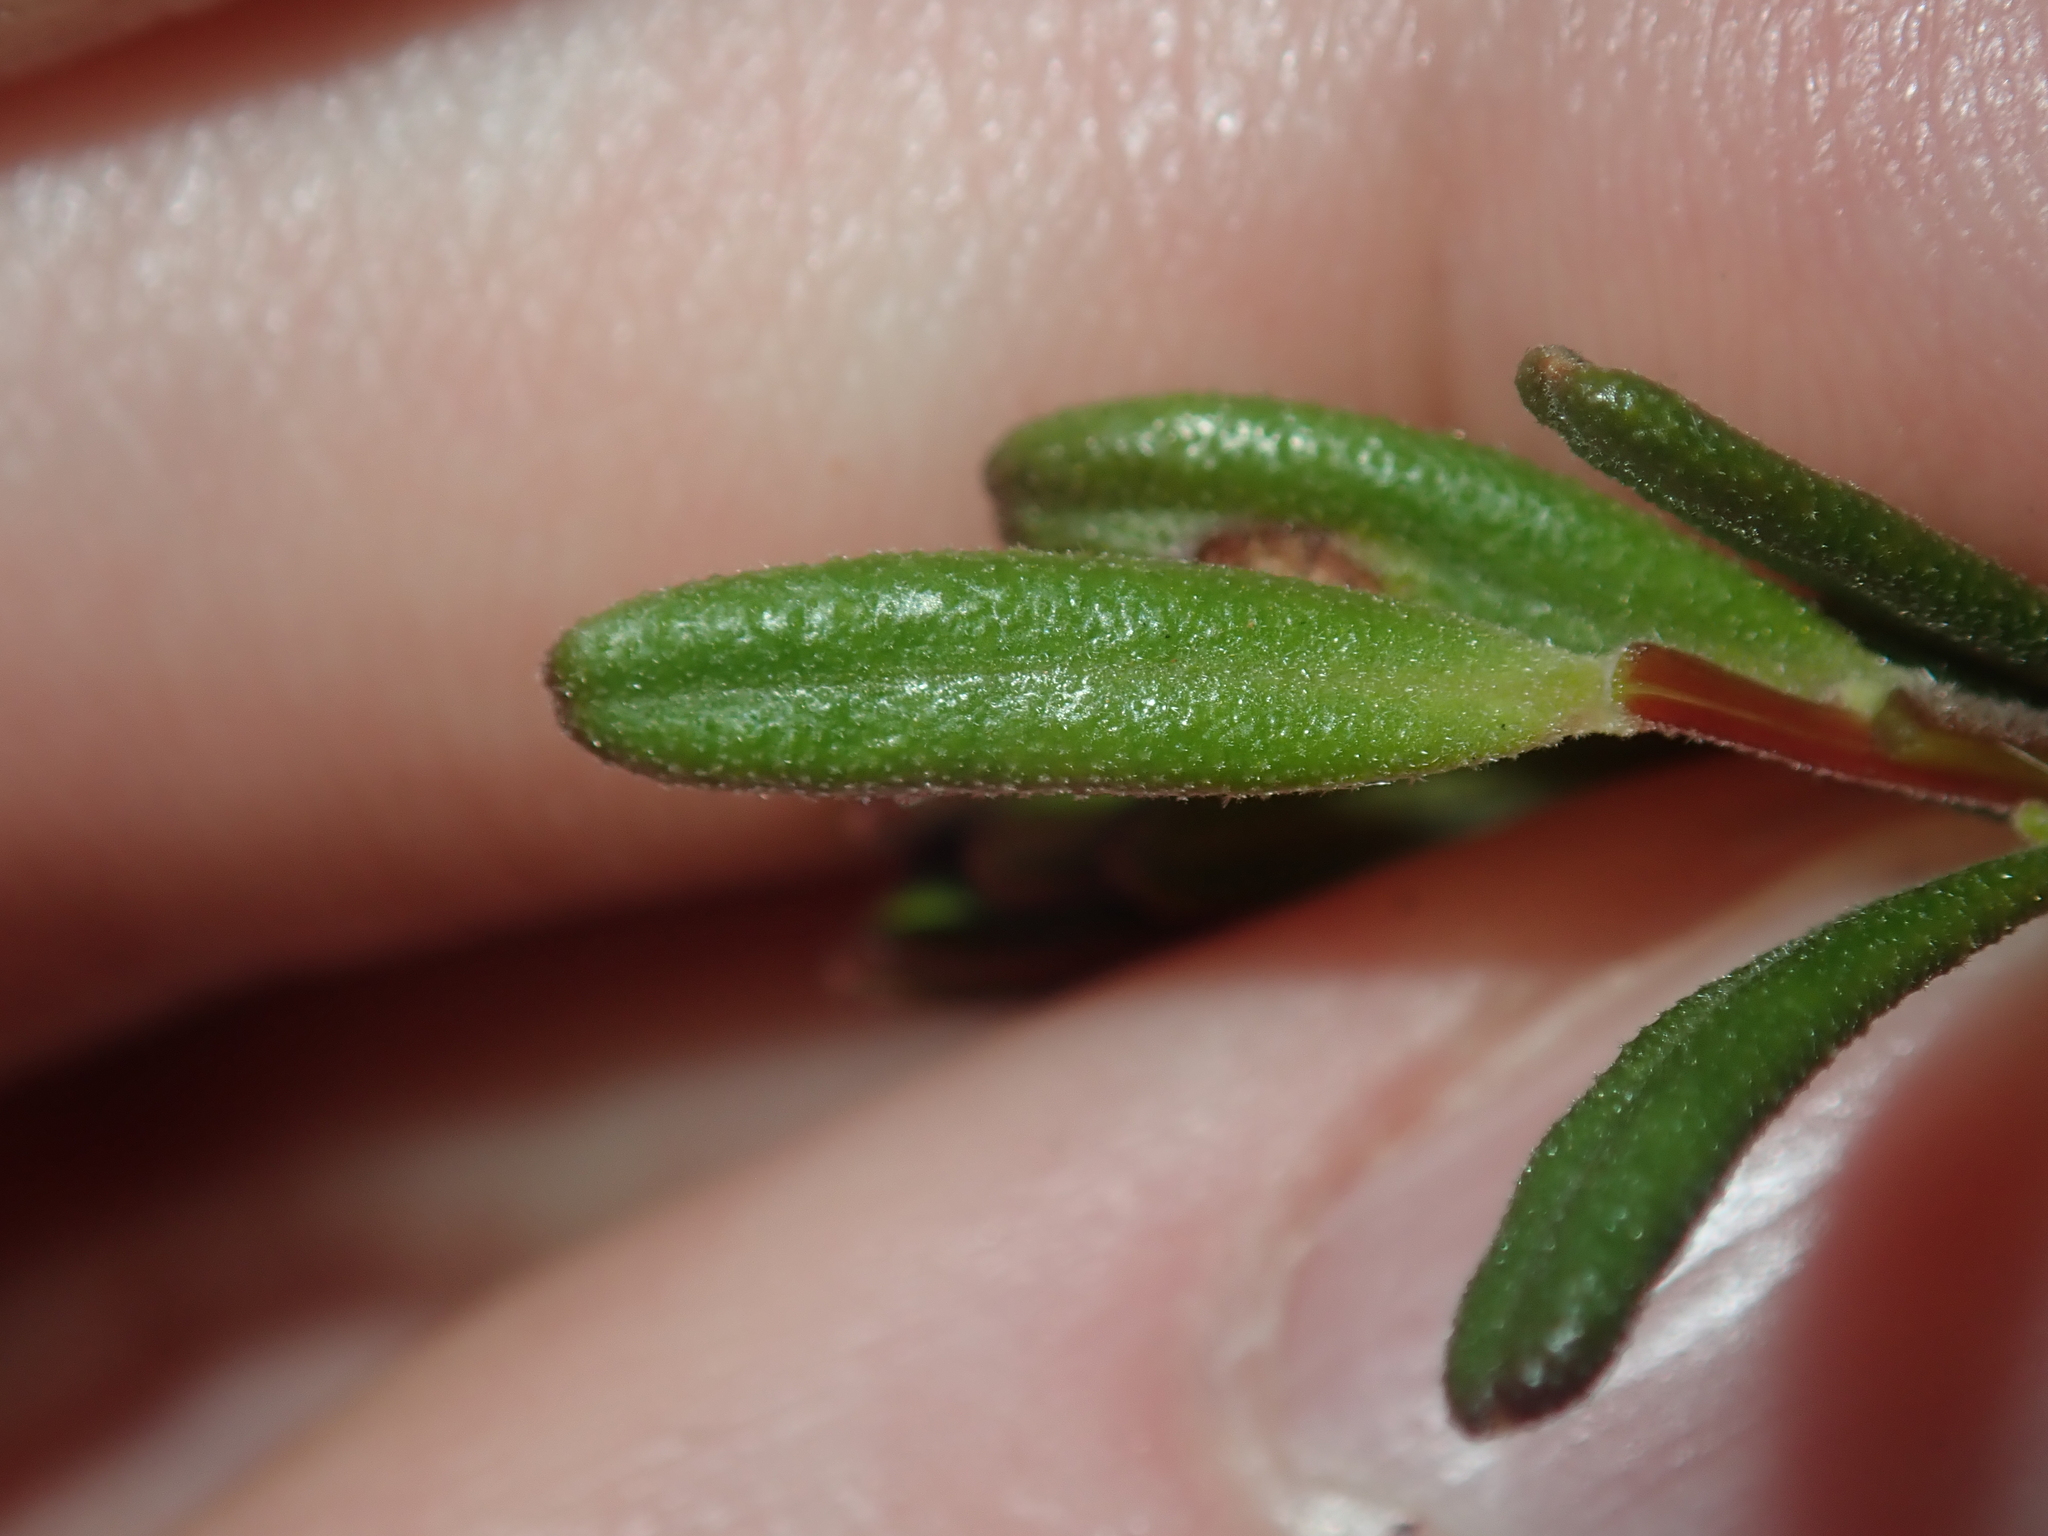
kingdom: Plantae
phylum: Tracheophyta
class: Magnoliopsida
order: Dilleniales
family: Dilleniaceae
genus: Hibbertia
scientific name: Hibbertia hypericoides
